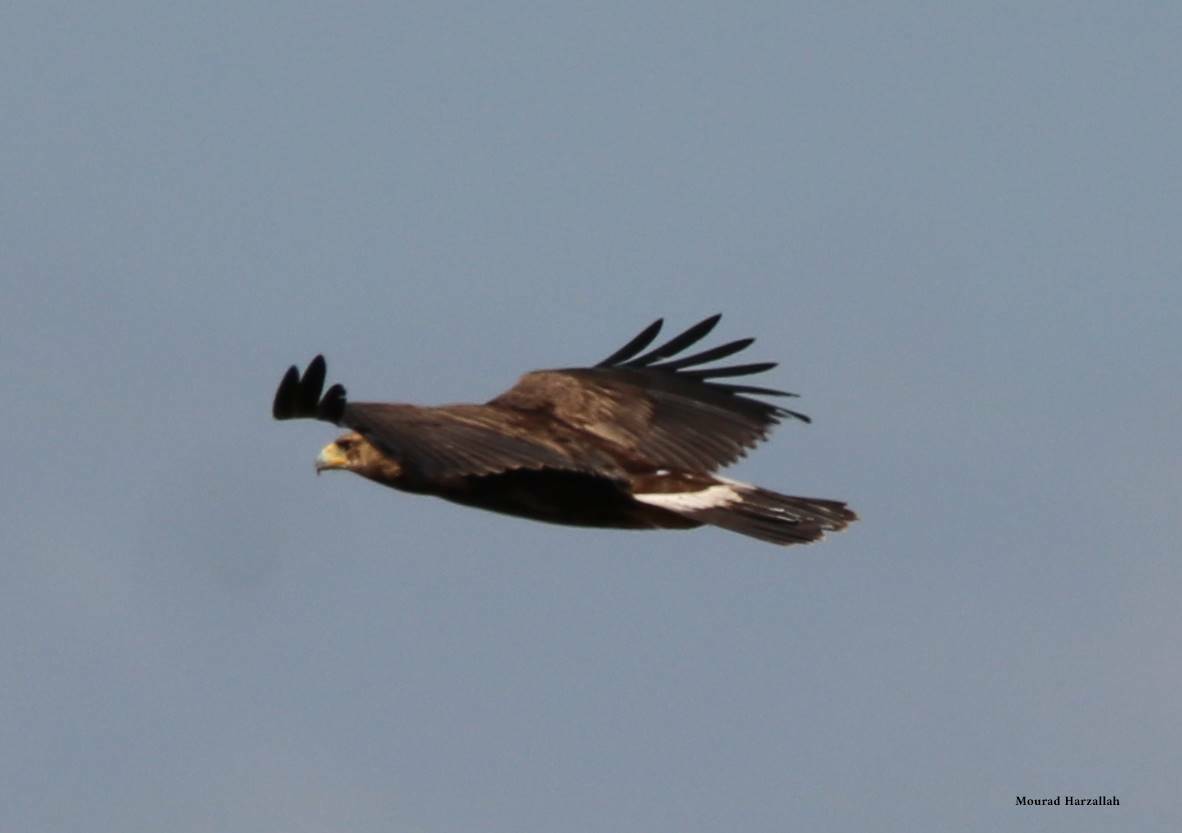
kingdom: Animalia
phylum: Chordata
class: Aves
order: Accipitriformes
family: Accipitridae
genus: Aquila
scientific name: Aquila chrysaetos
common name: Golden eagle
